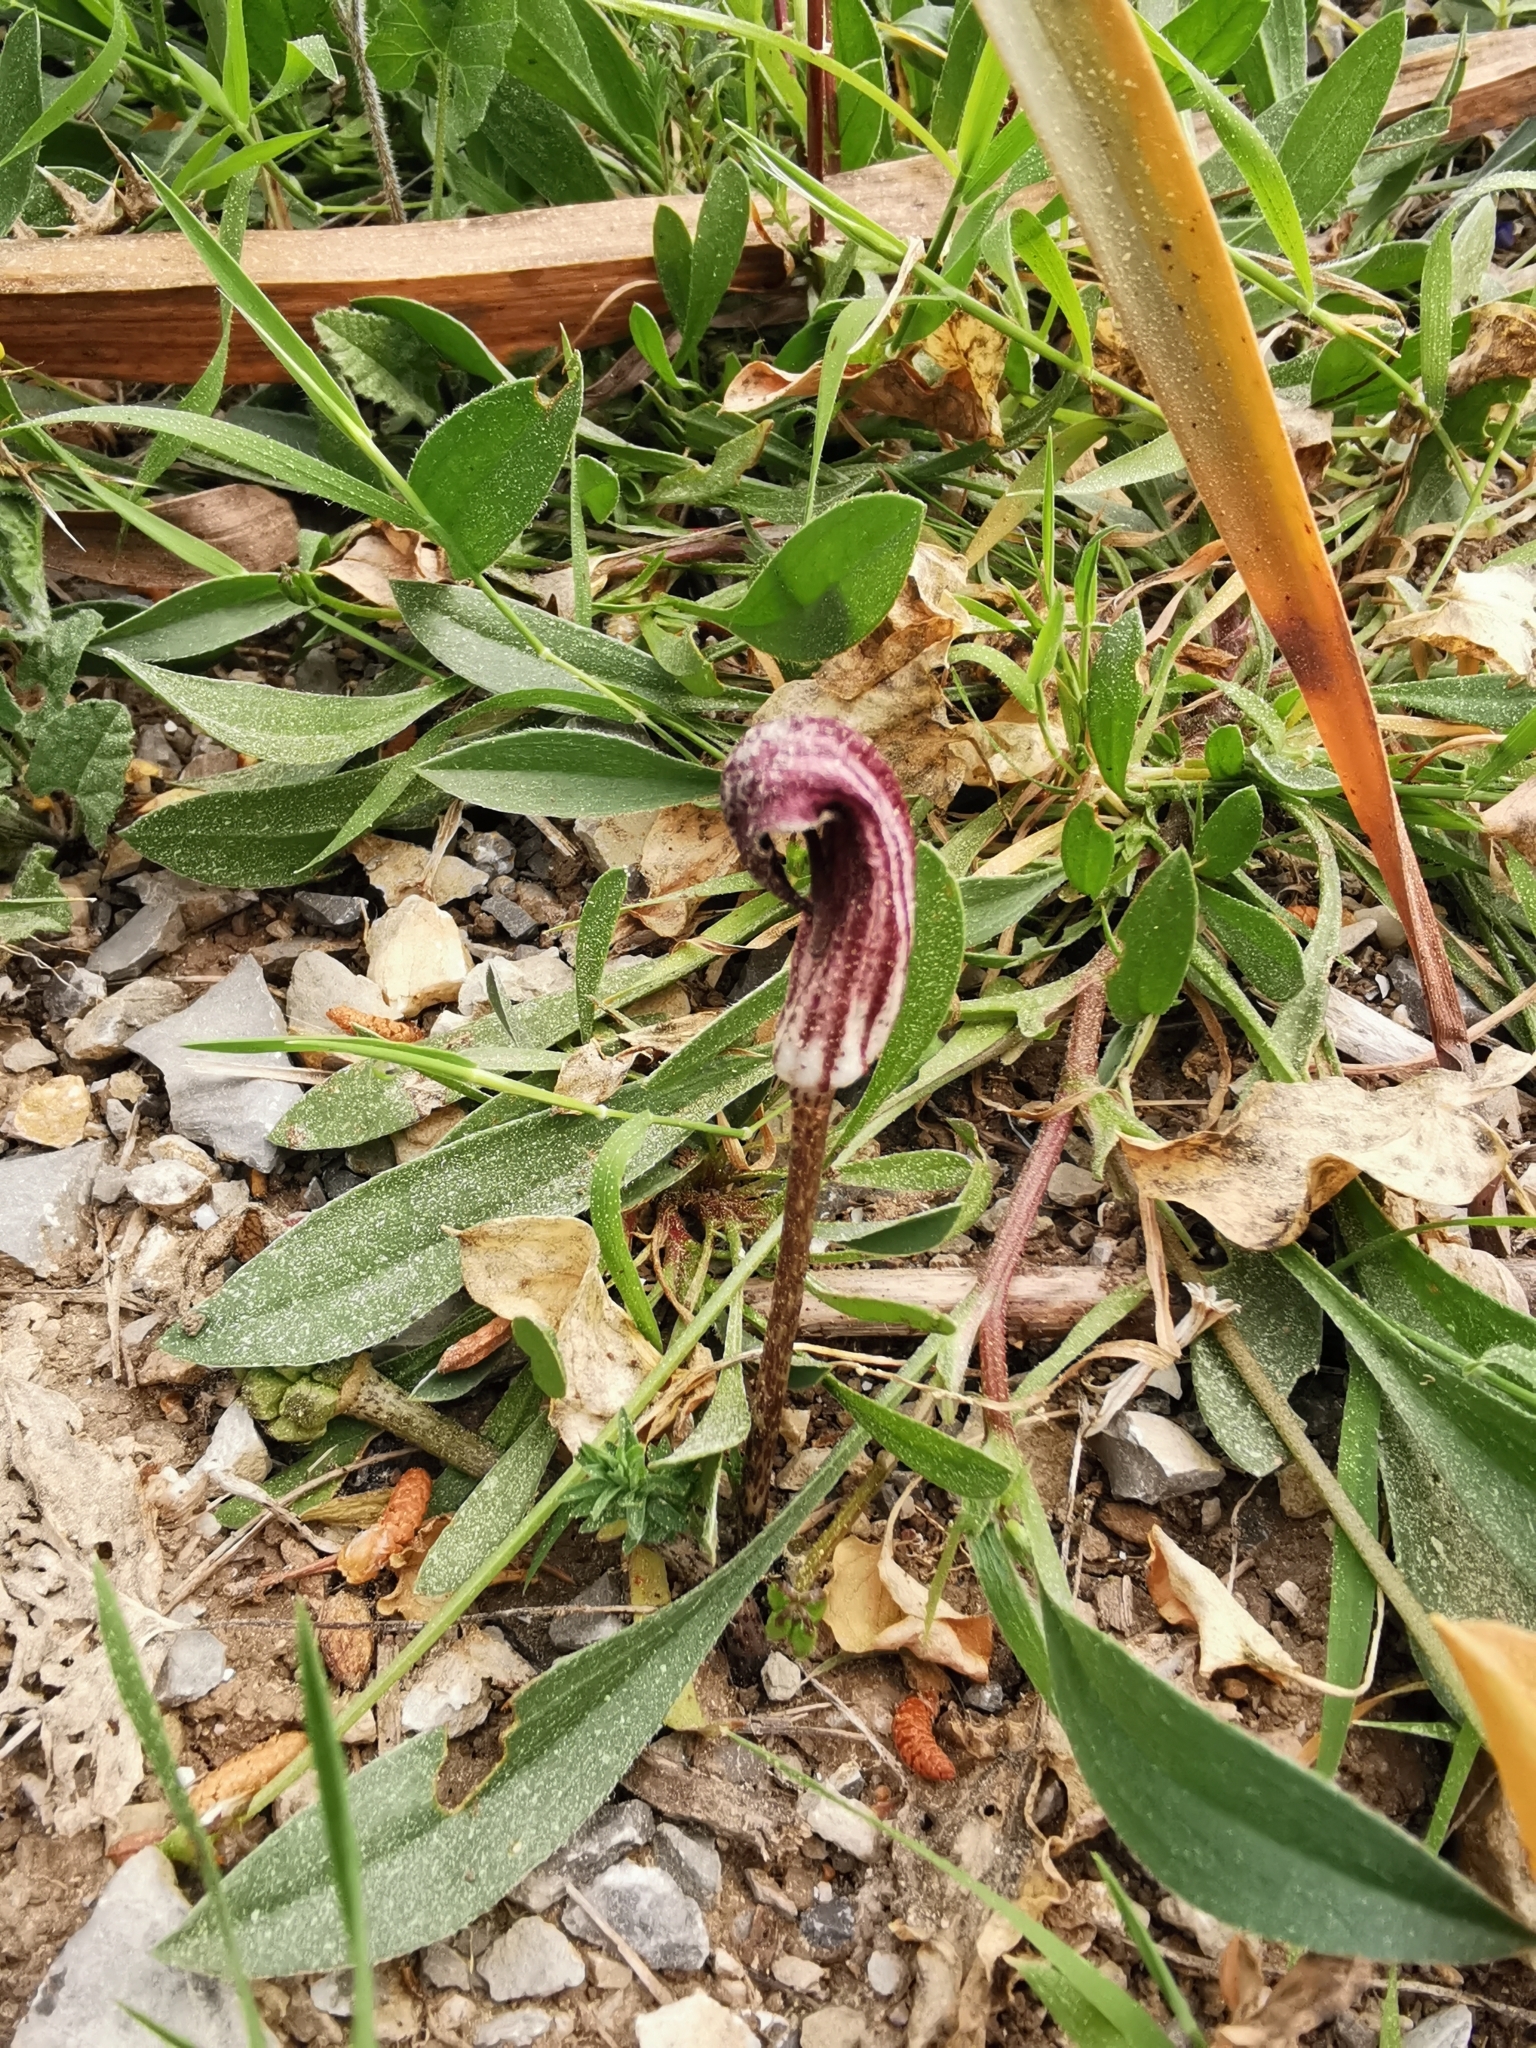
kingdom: Plantae
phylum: Tracheophyta
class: Liliopsida
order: Alismatales
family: Araceae
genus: Arisarum
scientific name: Arisarum vulgare
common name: Common arisarum
